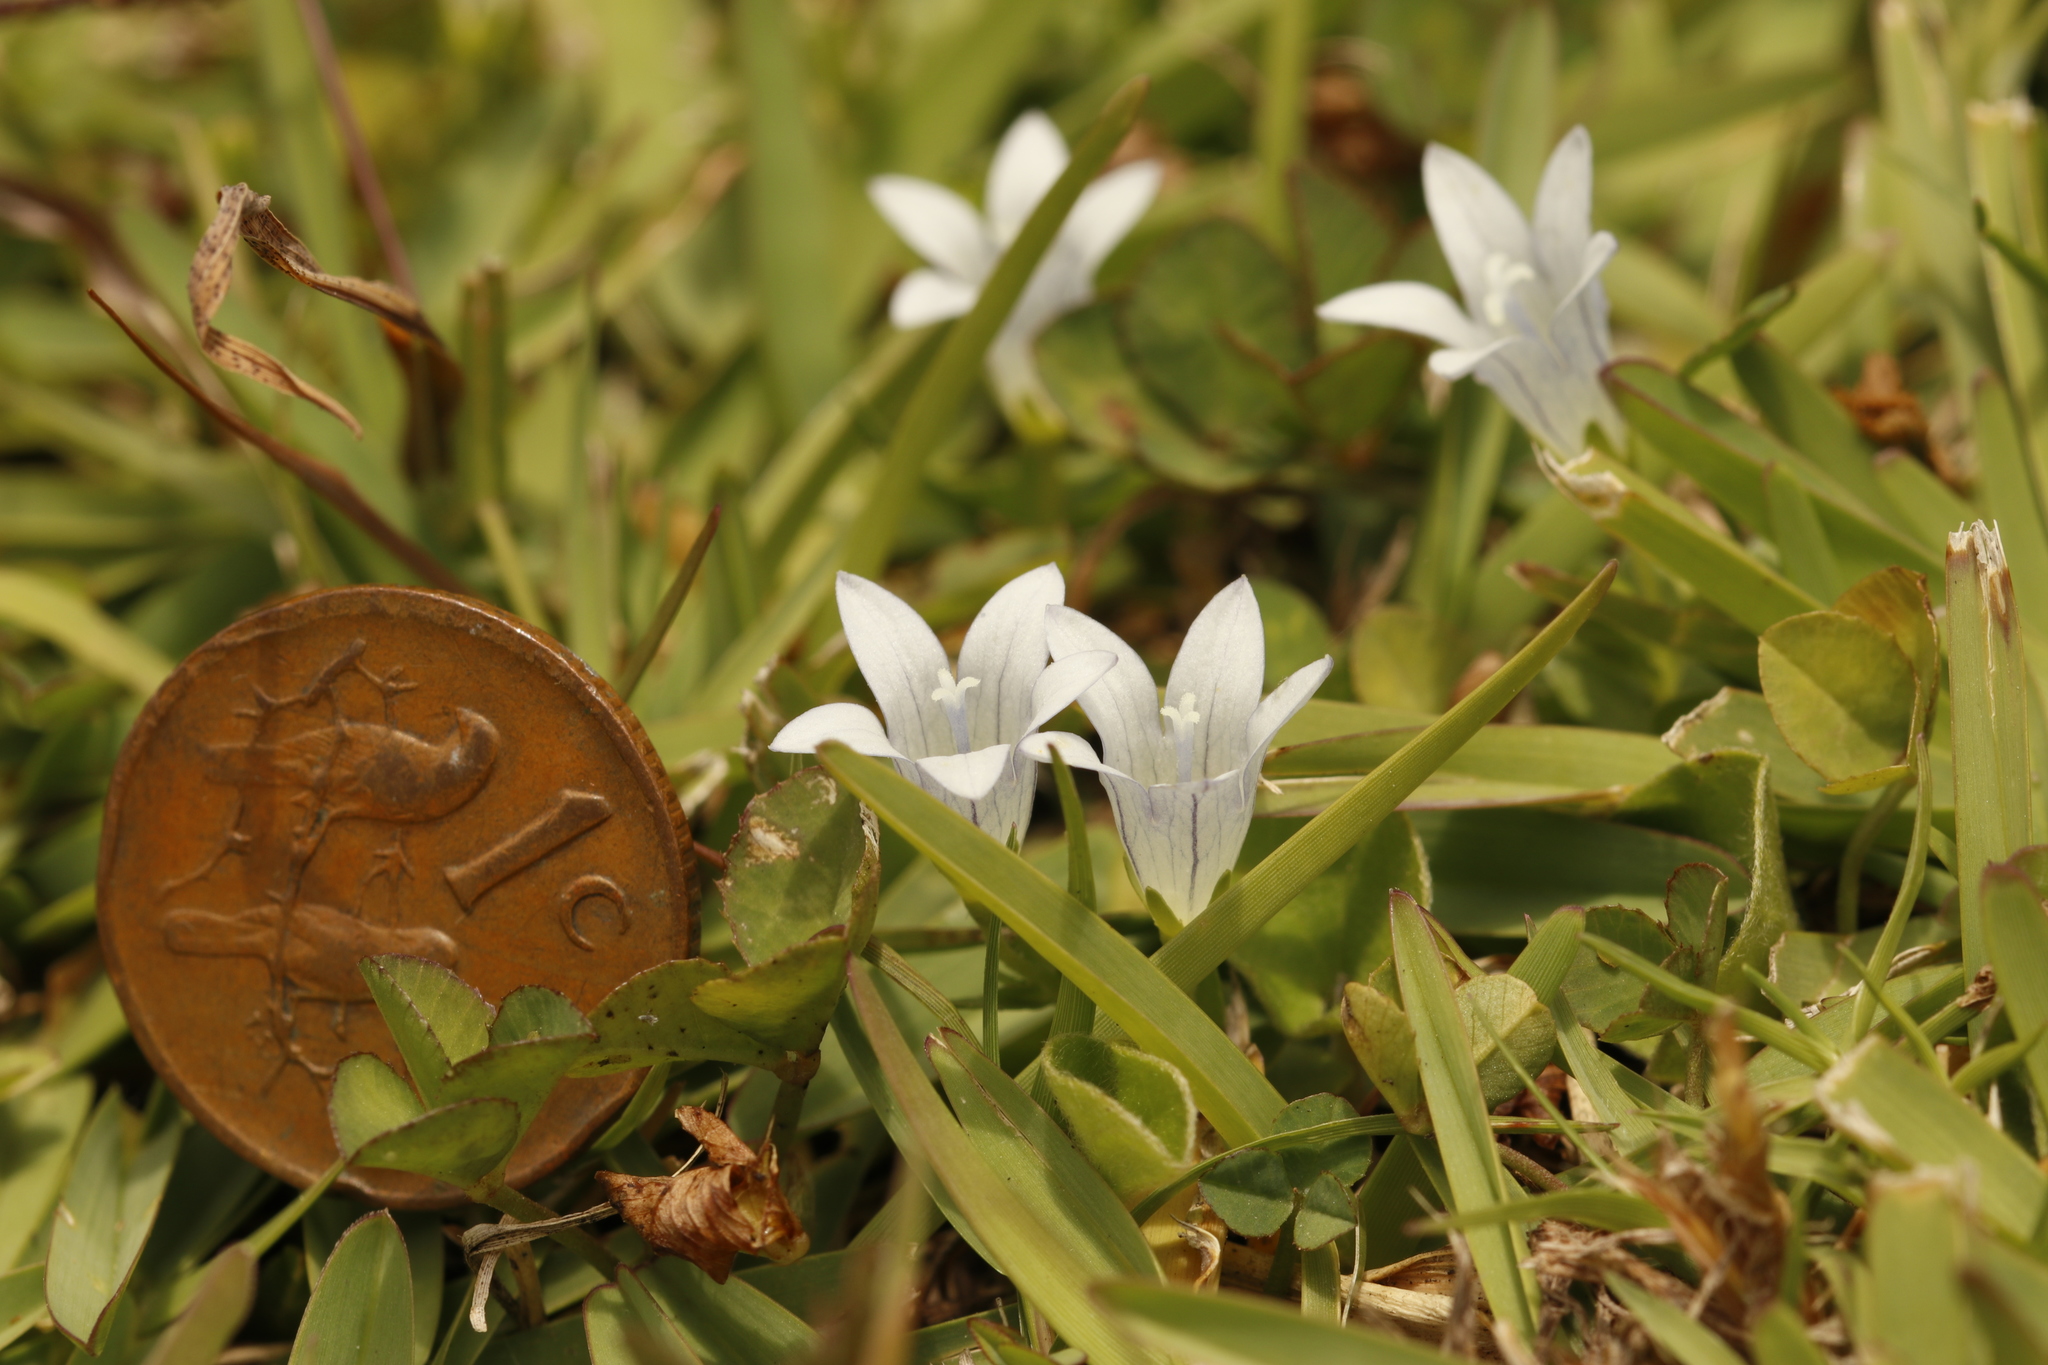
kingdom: Plantae
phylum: Tracheophyta
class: Magnoliopsida
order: Asterales
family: Campanulaceae
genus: Wahlenbergia
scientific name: Wahlenbergia procumbens
